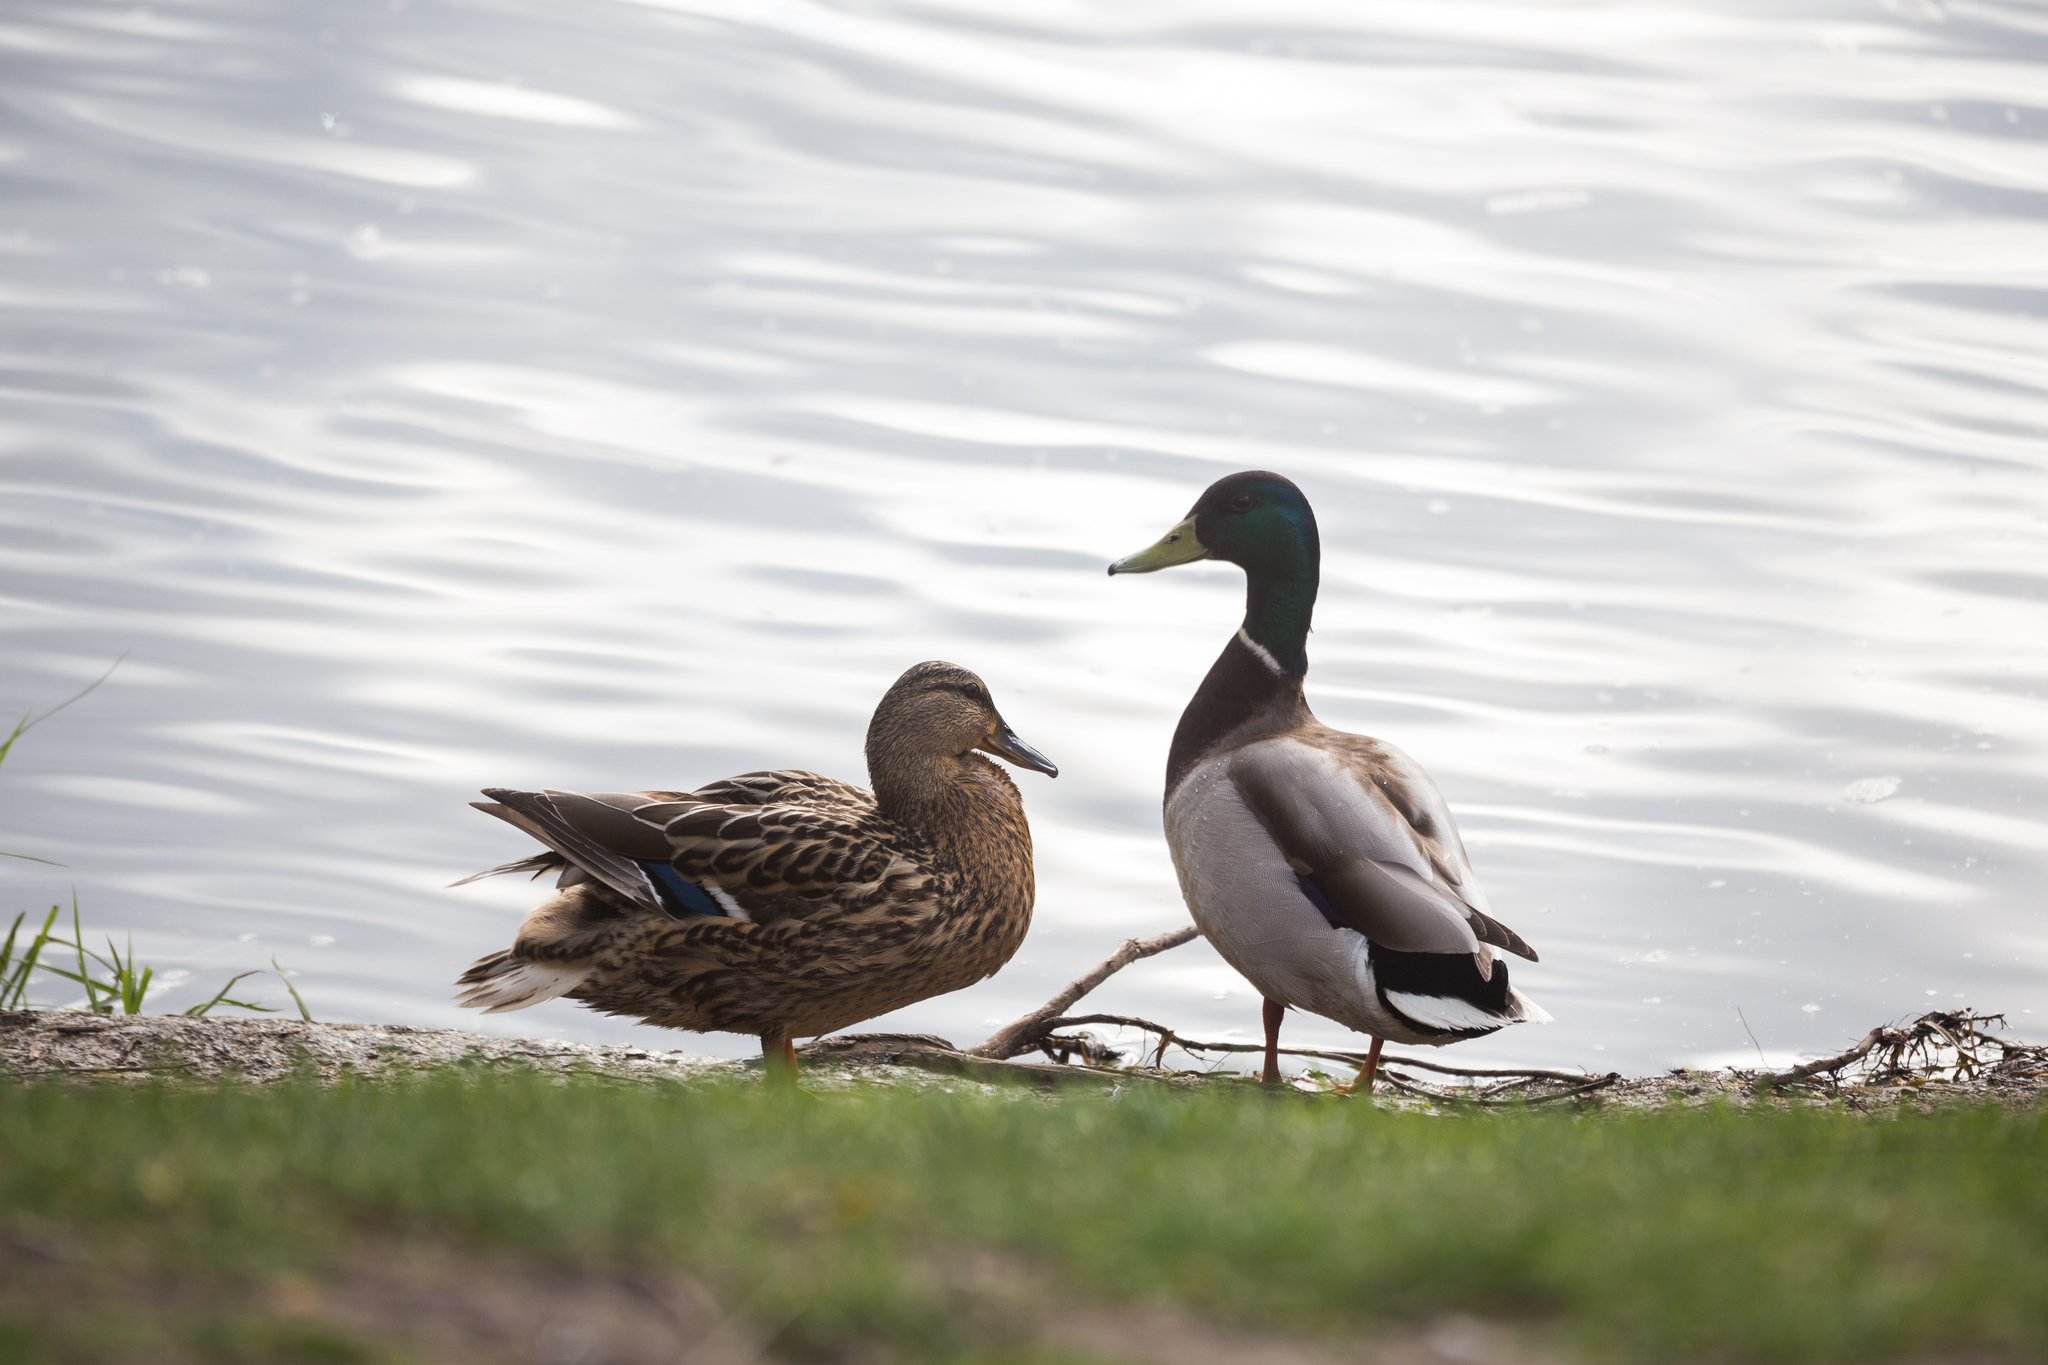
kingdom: Animalia
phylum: Chordata
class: Aves
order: Anseriformes
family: Anatidae
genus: Anas
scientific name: Anas platyrhynchos
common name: Mallard
